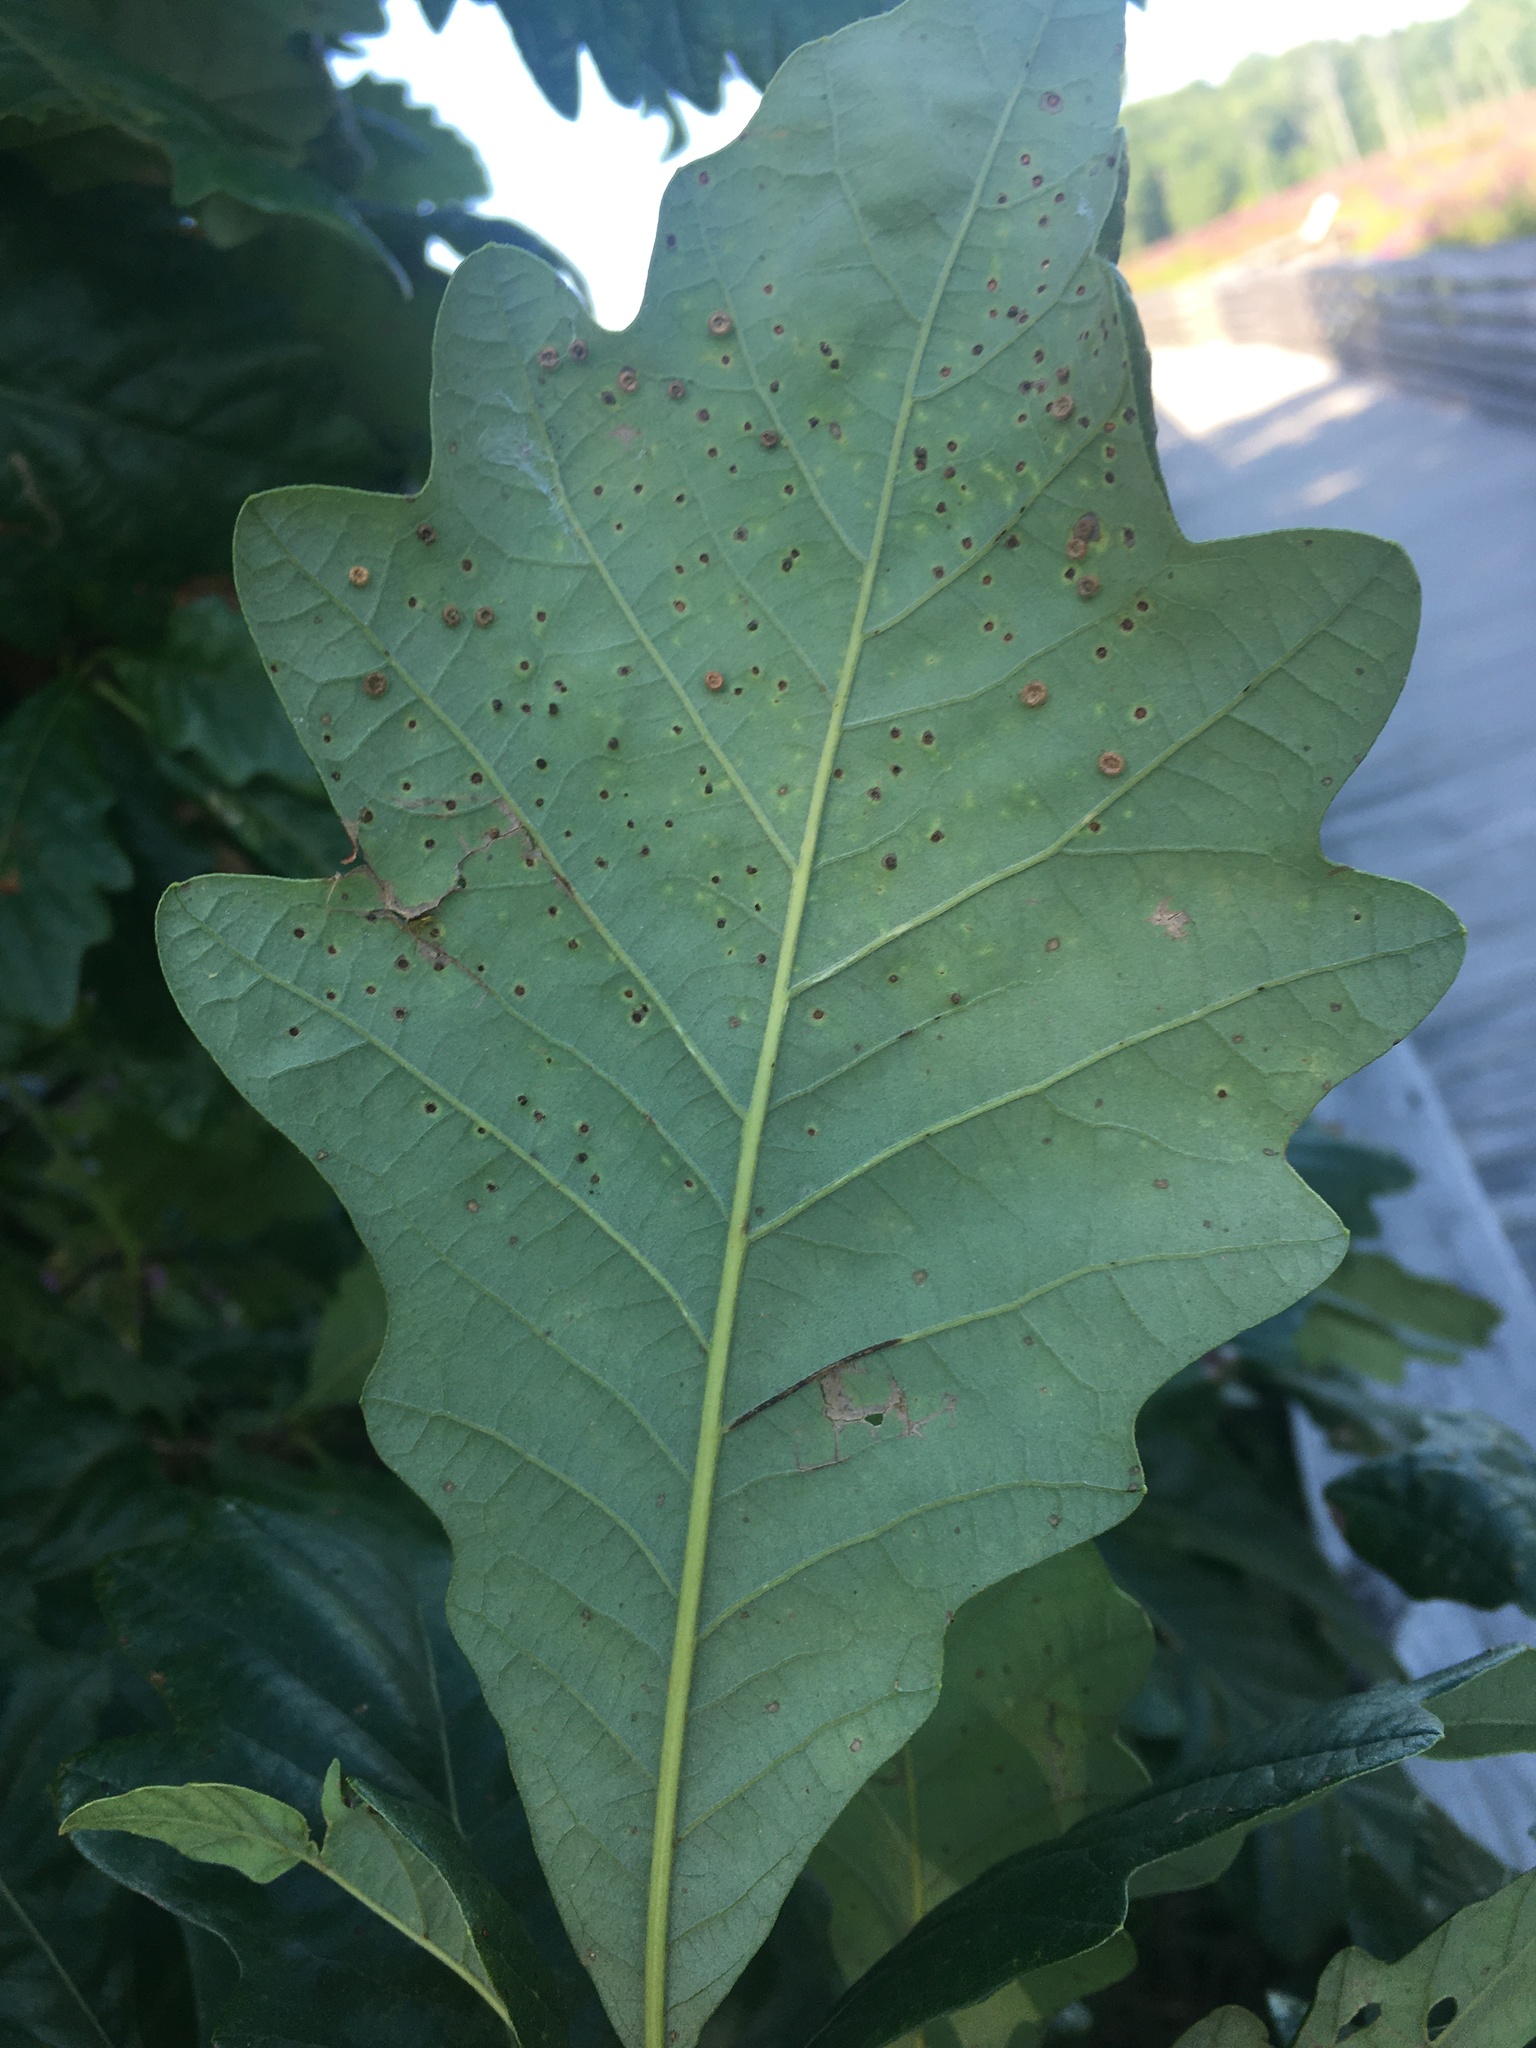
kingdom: Plantae
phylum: Tracheophyta
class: Magnoliopsida
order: Fagales
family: Fagaceae
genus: Quercus
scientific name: Quercus bicolor
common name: Swamp white oak
